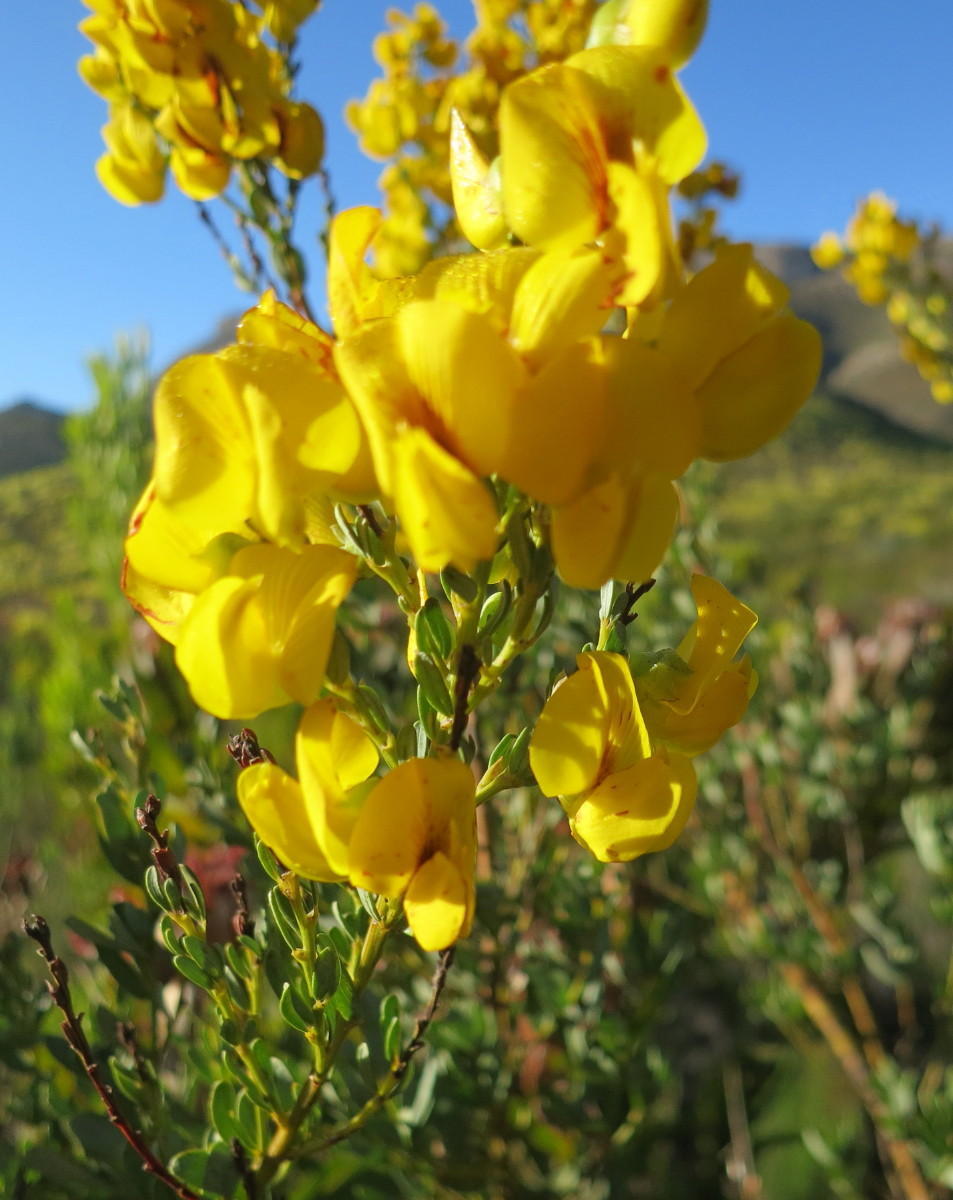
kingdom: Plantae
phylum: Tracheophyta
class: Magnoliopsida
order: Fabales
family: Fabaceae
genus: Cyclopia
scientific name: Cyclopia subternata
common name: Honeybush tea
